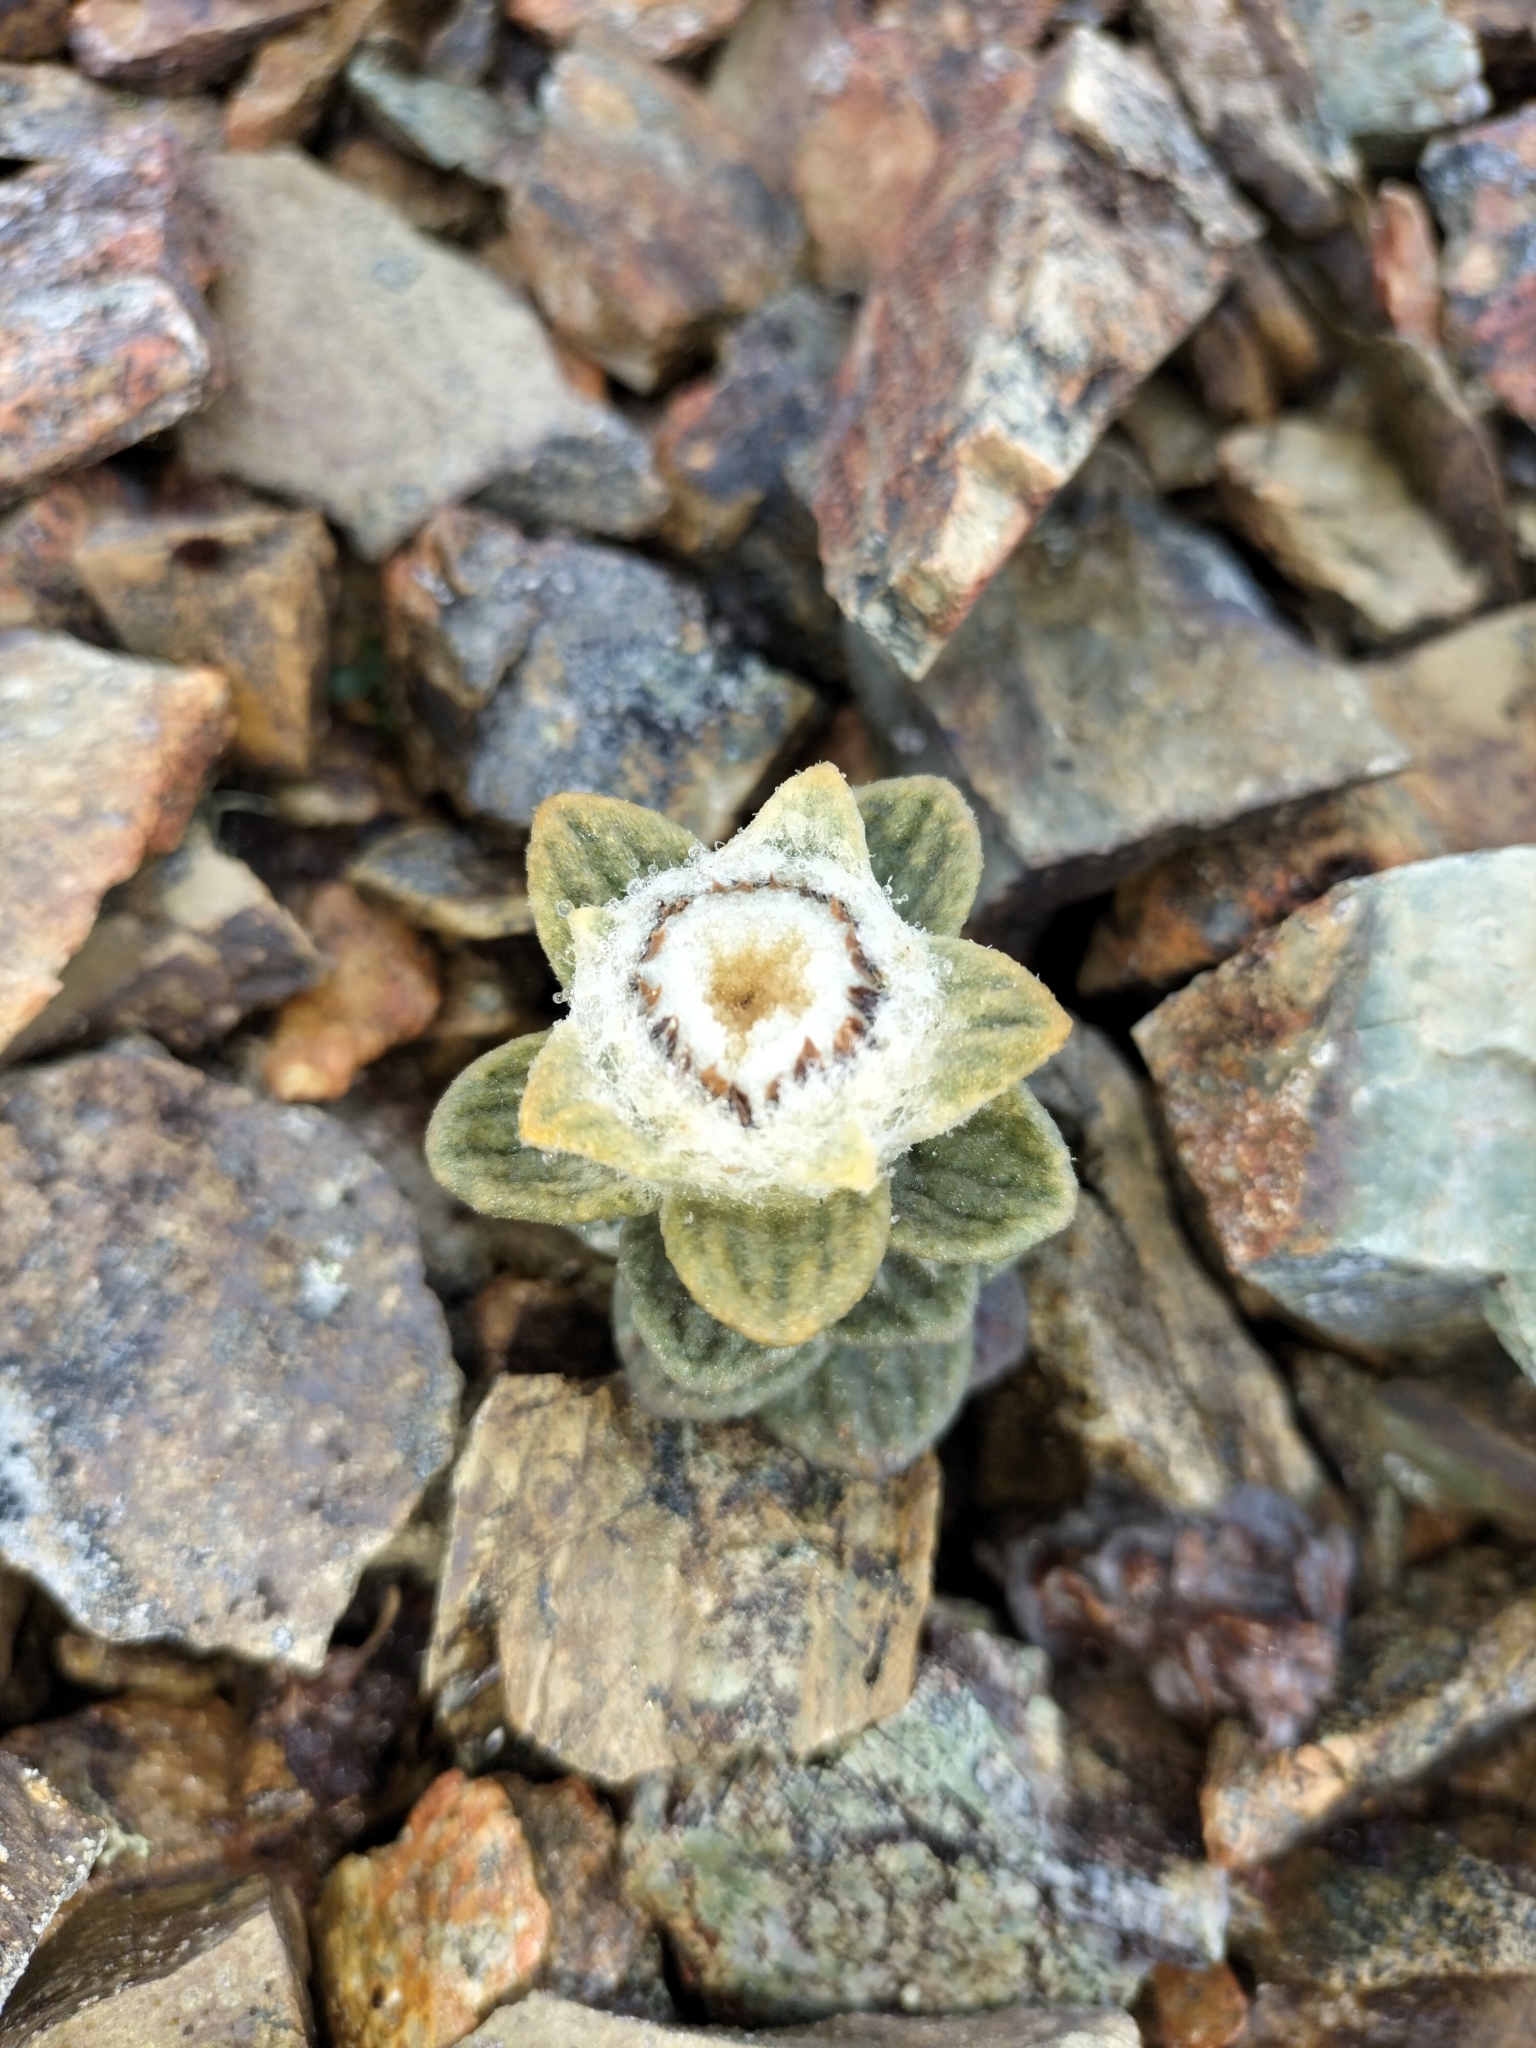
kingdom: Plantae
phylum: Tracheophyta
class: Magnoliopsida
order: Asterales
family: Asteraceae
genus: Haastia
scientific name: Haastia sinclairii
